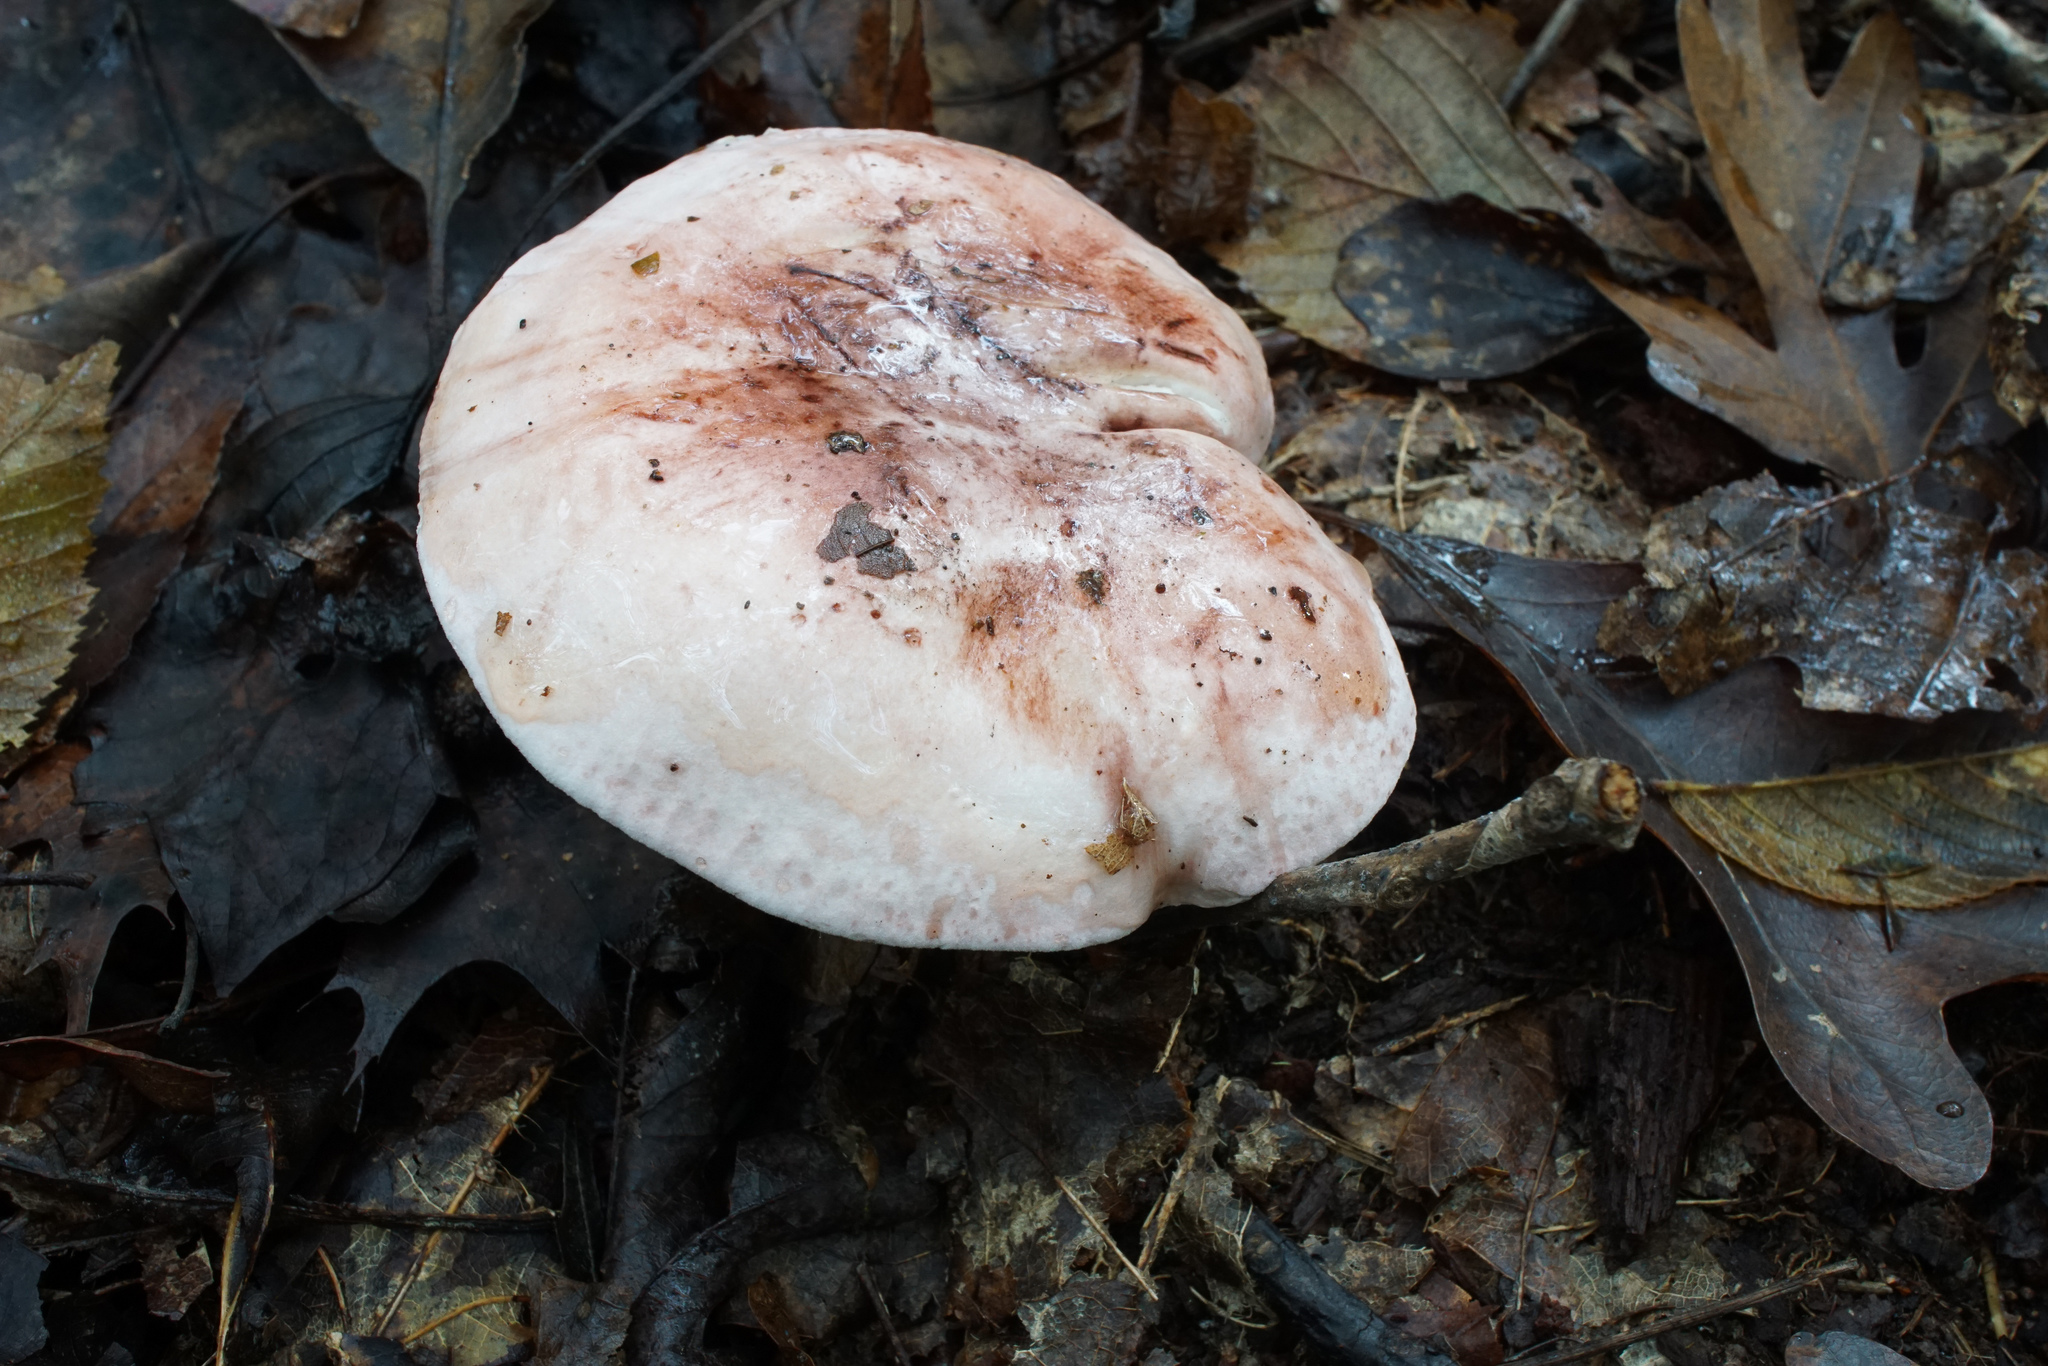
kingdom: Fungi
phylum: Basidiomycota
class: Agaricomycetes
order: Agaricales
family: Hygrophoraceae
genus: Hygrophorus
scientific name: Hygrophorus russula
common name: Pinkmottle woodwax
